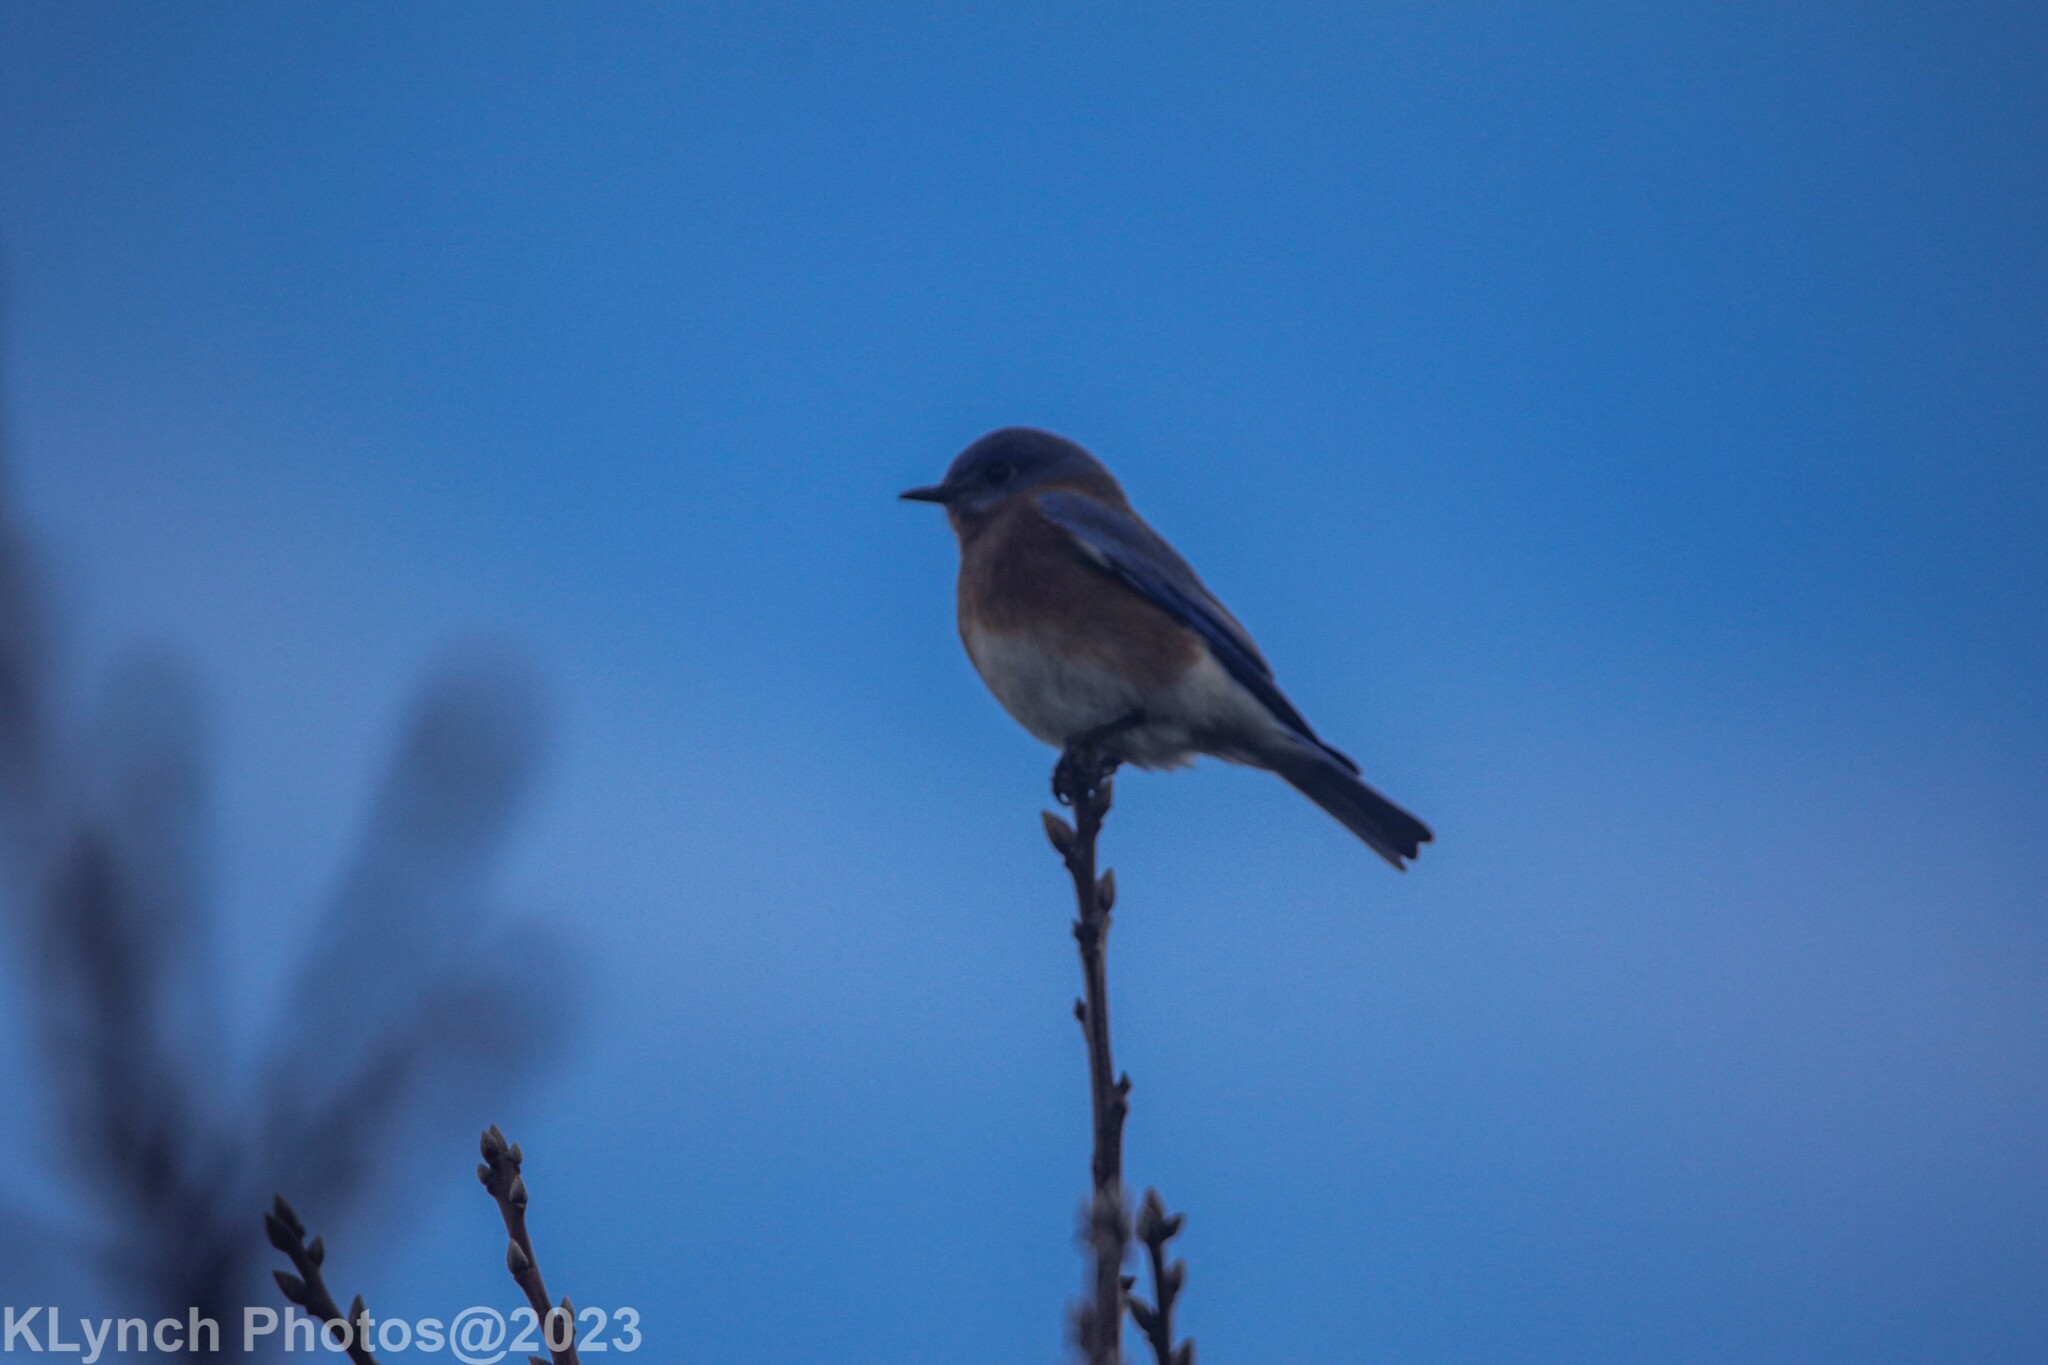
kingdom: Animalia
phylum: Chordata
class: Aves
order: Passeriformes
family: Turdidae
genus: Sialia
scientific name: Sialia sialis
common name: Eastern bluebird
